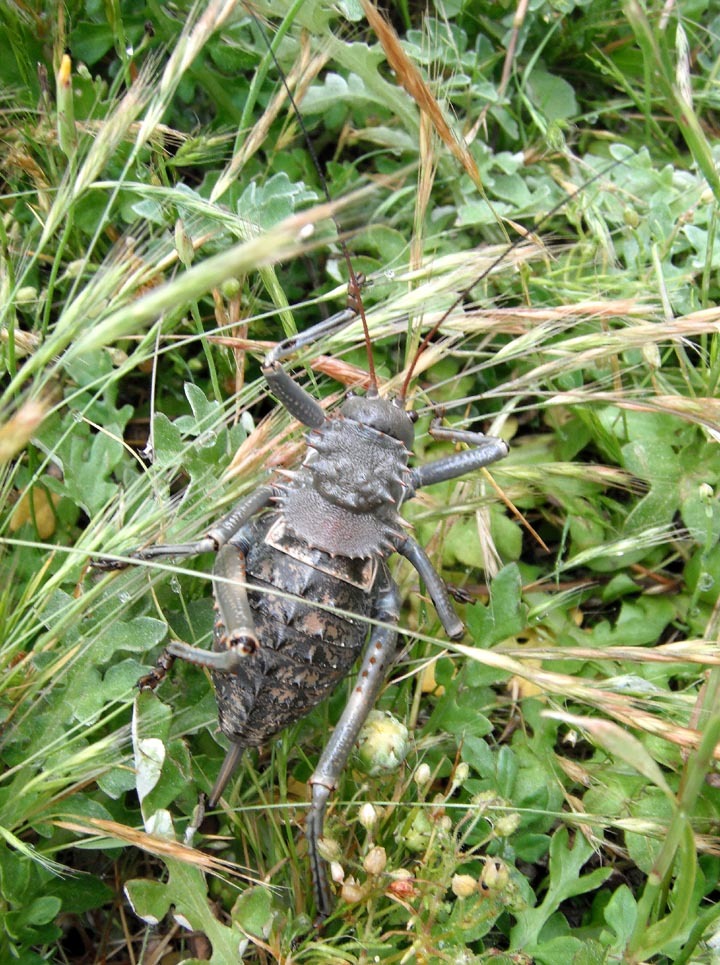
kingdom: Animalia
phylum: Arthropoda
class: Insecta
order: Orthoptera
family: Tettigoniidae
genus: Hetrodes
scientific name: Hetrodes pupus
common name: Koringkriek
